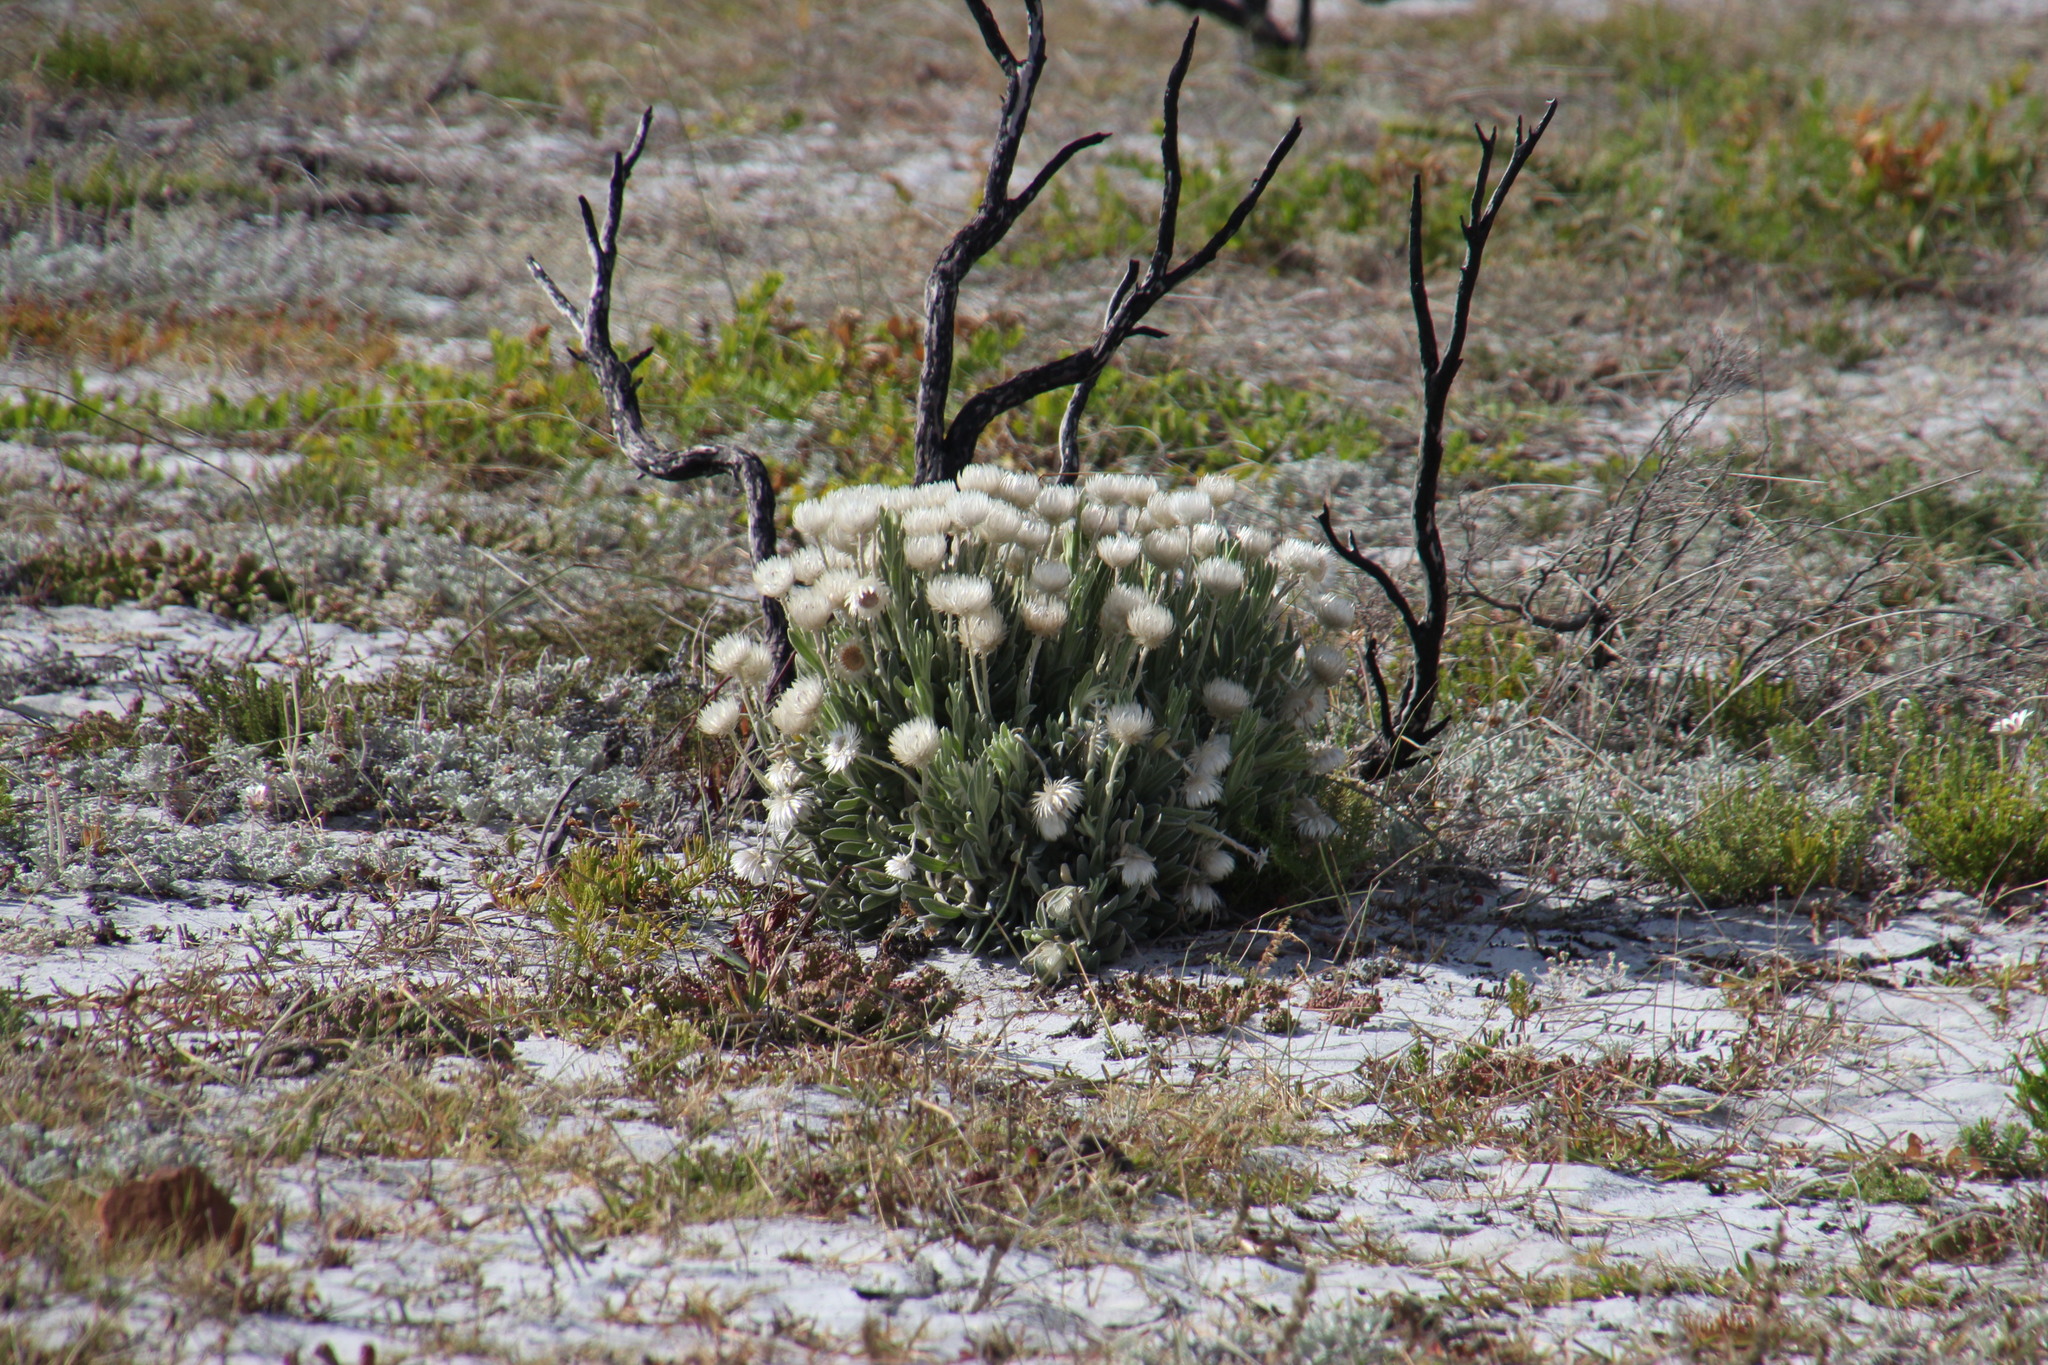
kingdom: Plantae
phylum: Tracheophyta
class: Magnoliopsida
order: Asterales
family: Asteraceae
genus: Syncarpha
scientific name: Syncarpha vestita
